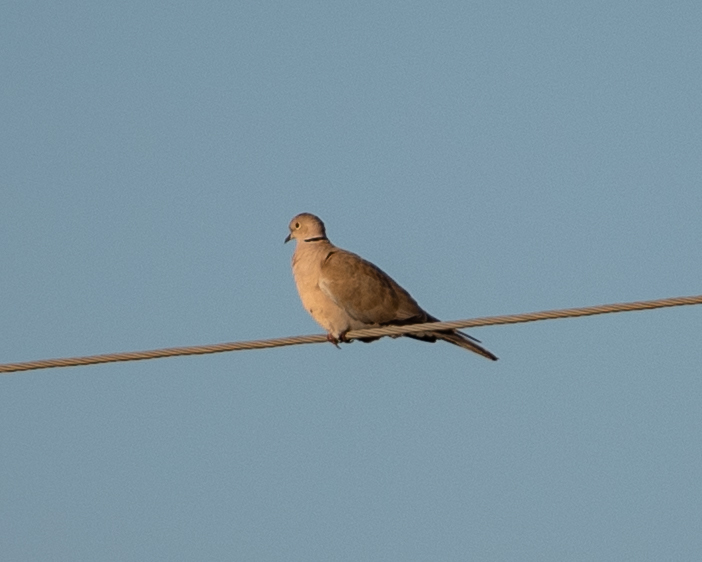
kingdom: Animalia
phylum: Chordata
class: Aves
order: Columbiformes
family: Columbidae
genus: Streptopelia
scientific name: Streptopelia decaocto
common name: Eurasian collared dove
